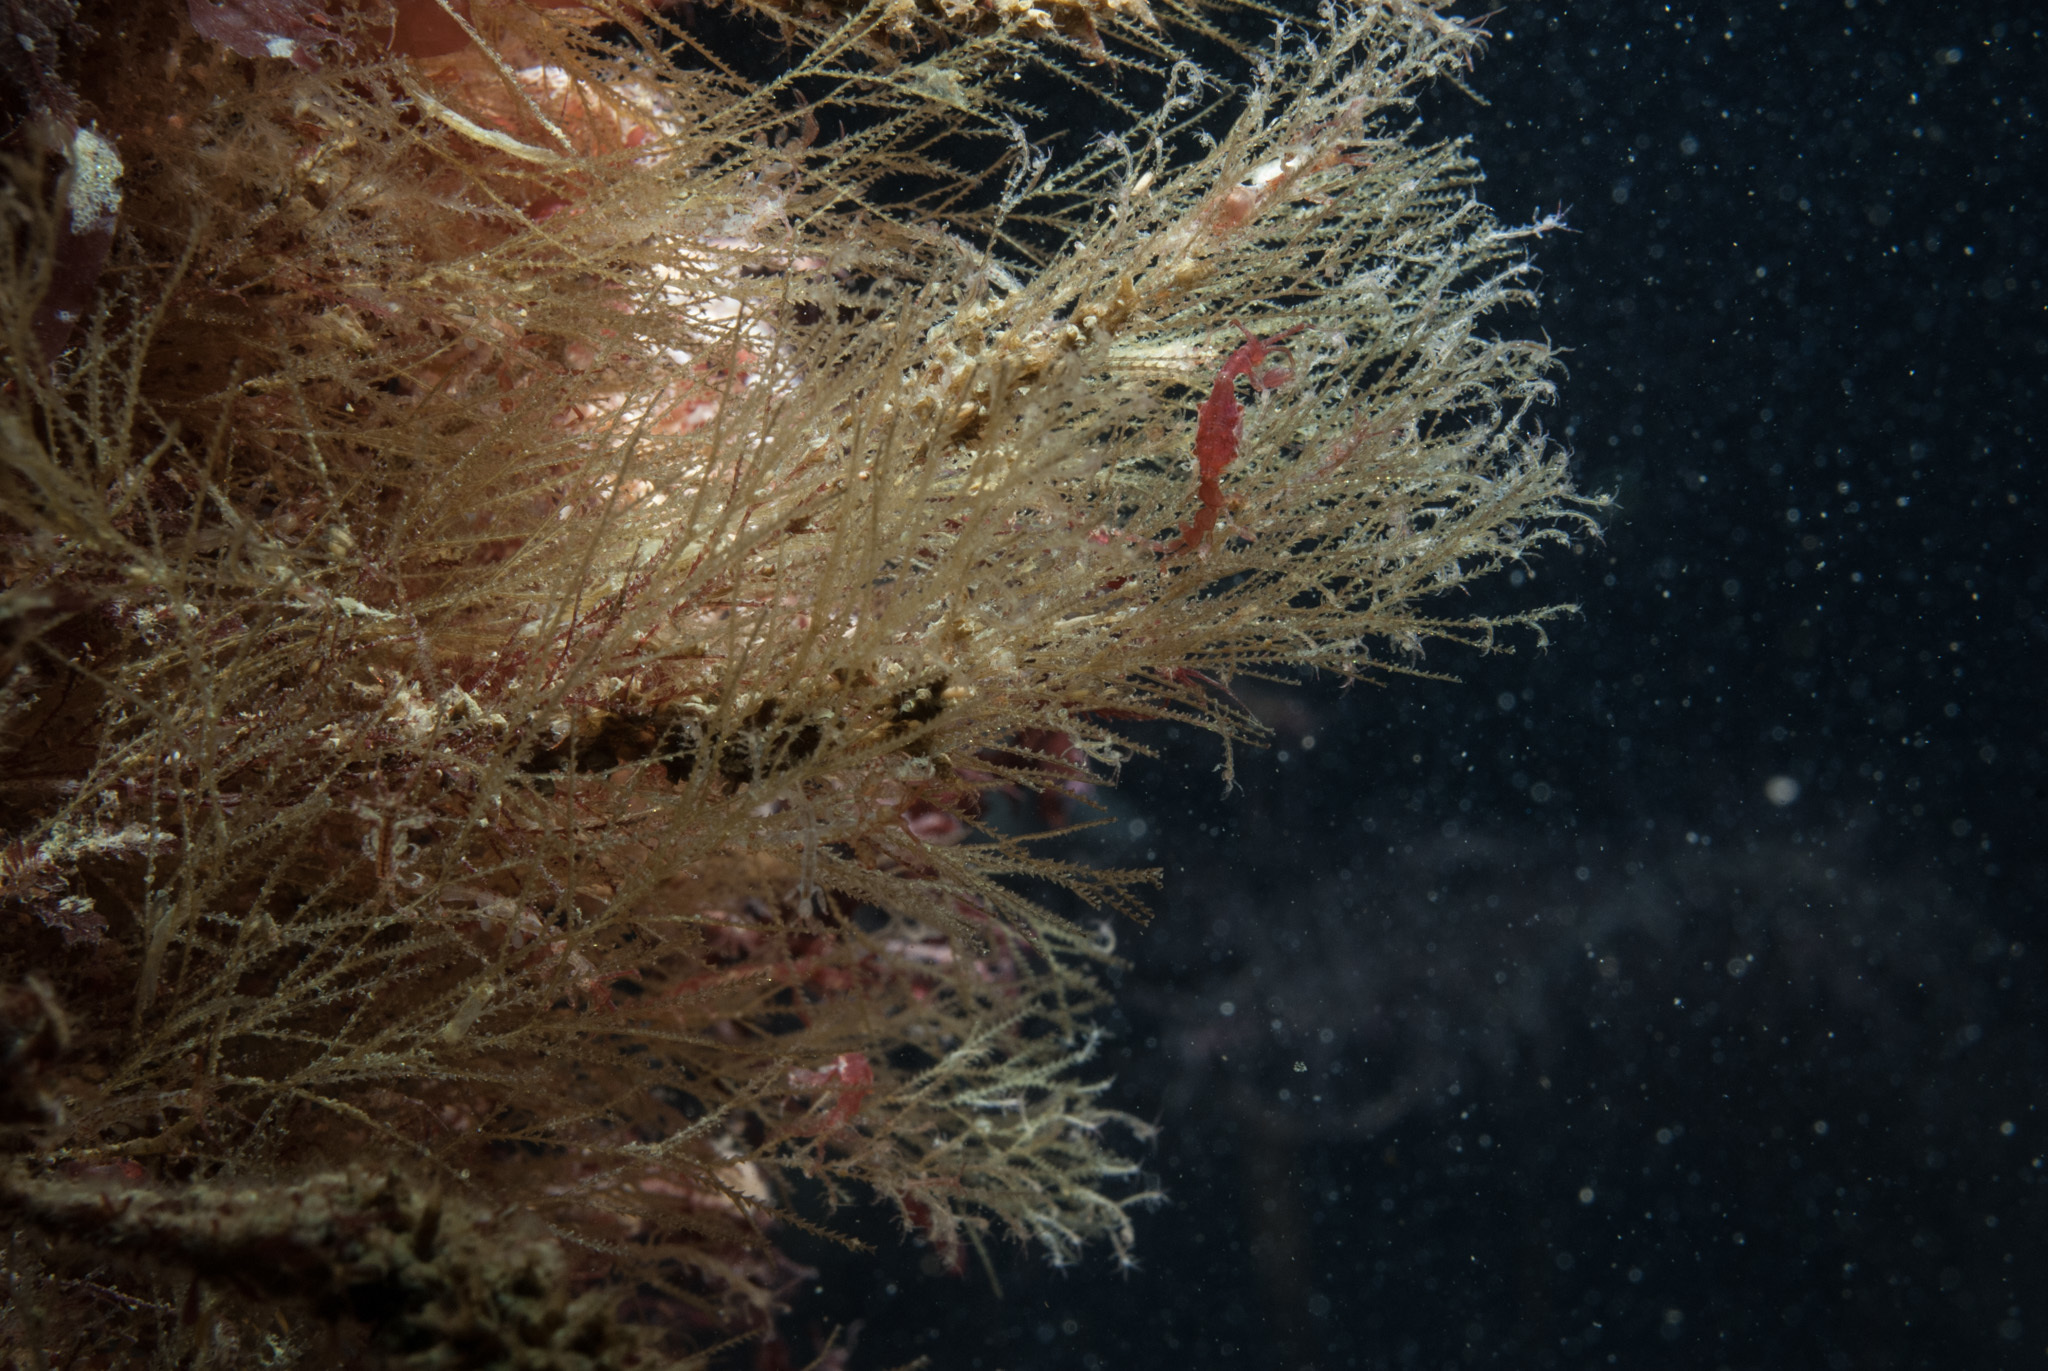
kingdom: Animalia
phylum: Cnidaria
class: Hydrozoa
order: Leptothecata
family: Sertulariidae
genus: Amphisbetia
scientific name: Amphisbetia operculata
